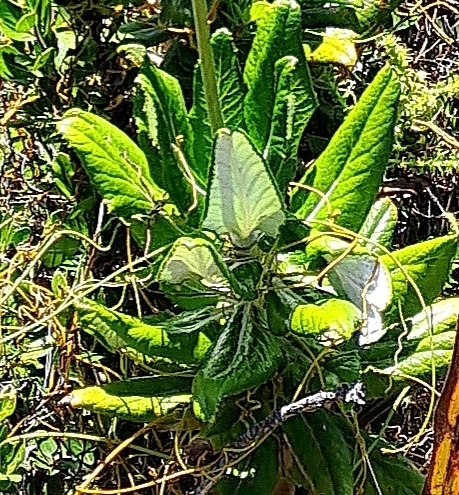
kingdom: Plantae
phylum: Tracheophyta
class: Magnoliopsida
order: Apiales
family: Apiaceae
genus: Hermas
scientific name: Hermas villosa
